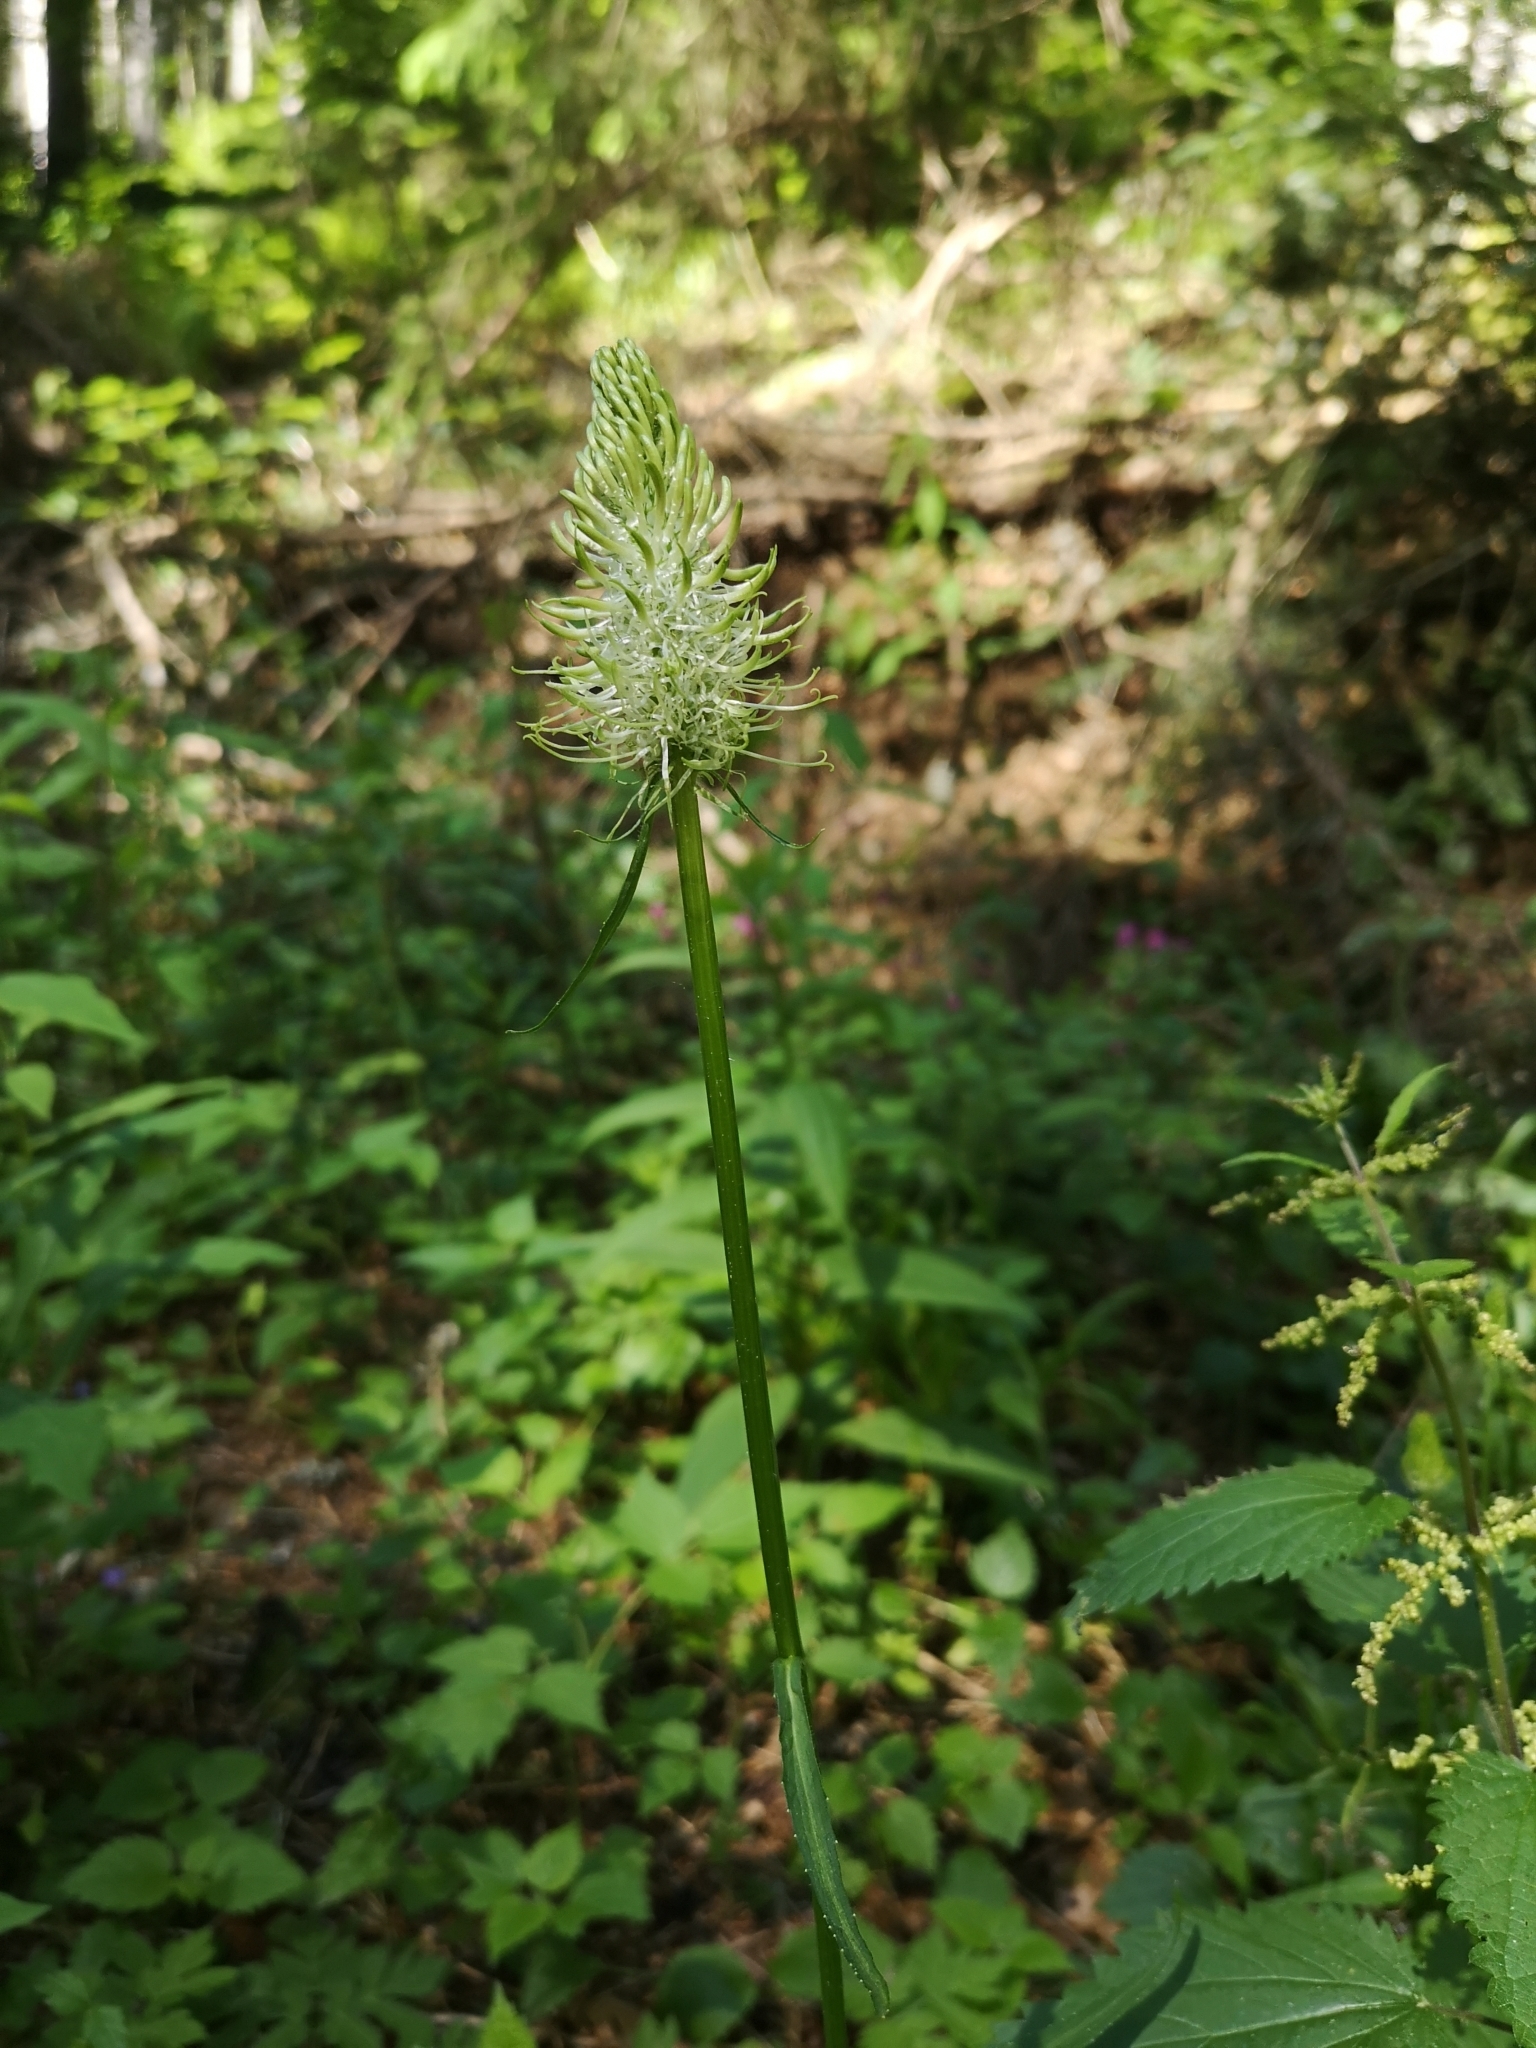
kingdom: Plantae
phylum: Tracheophyta
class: Magnoliopsida
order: Asterales
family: Campanulaceae
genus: Phyteuma
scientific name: Phyteuma spicatum
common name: Spiked rampion
